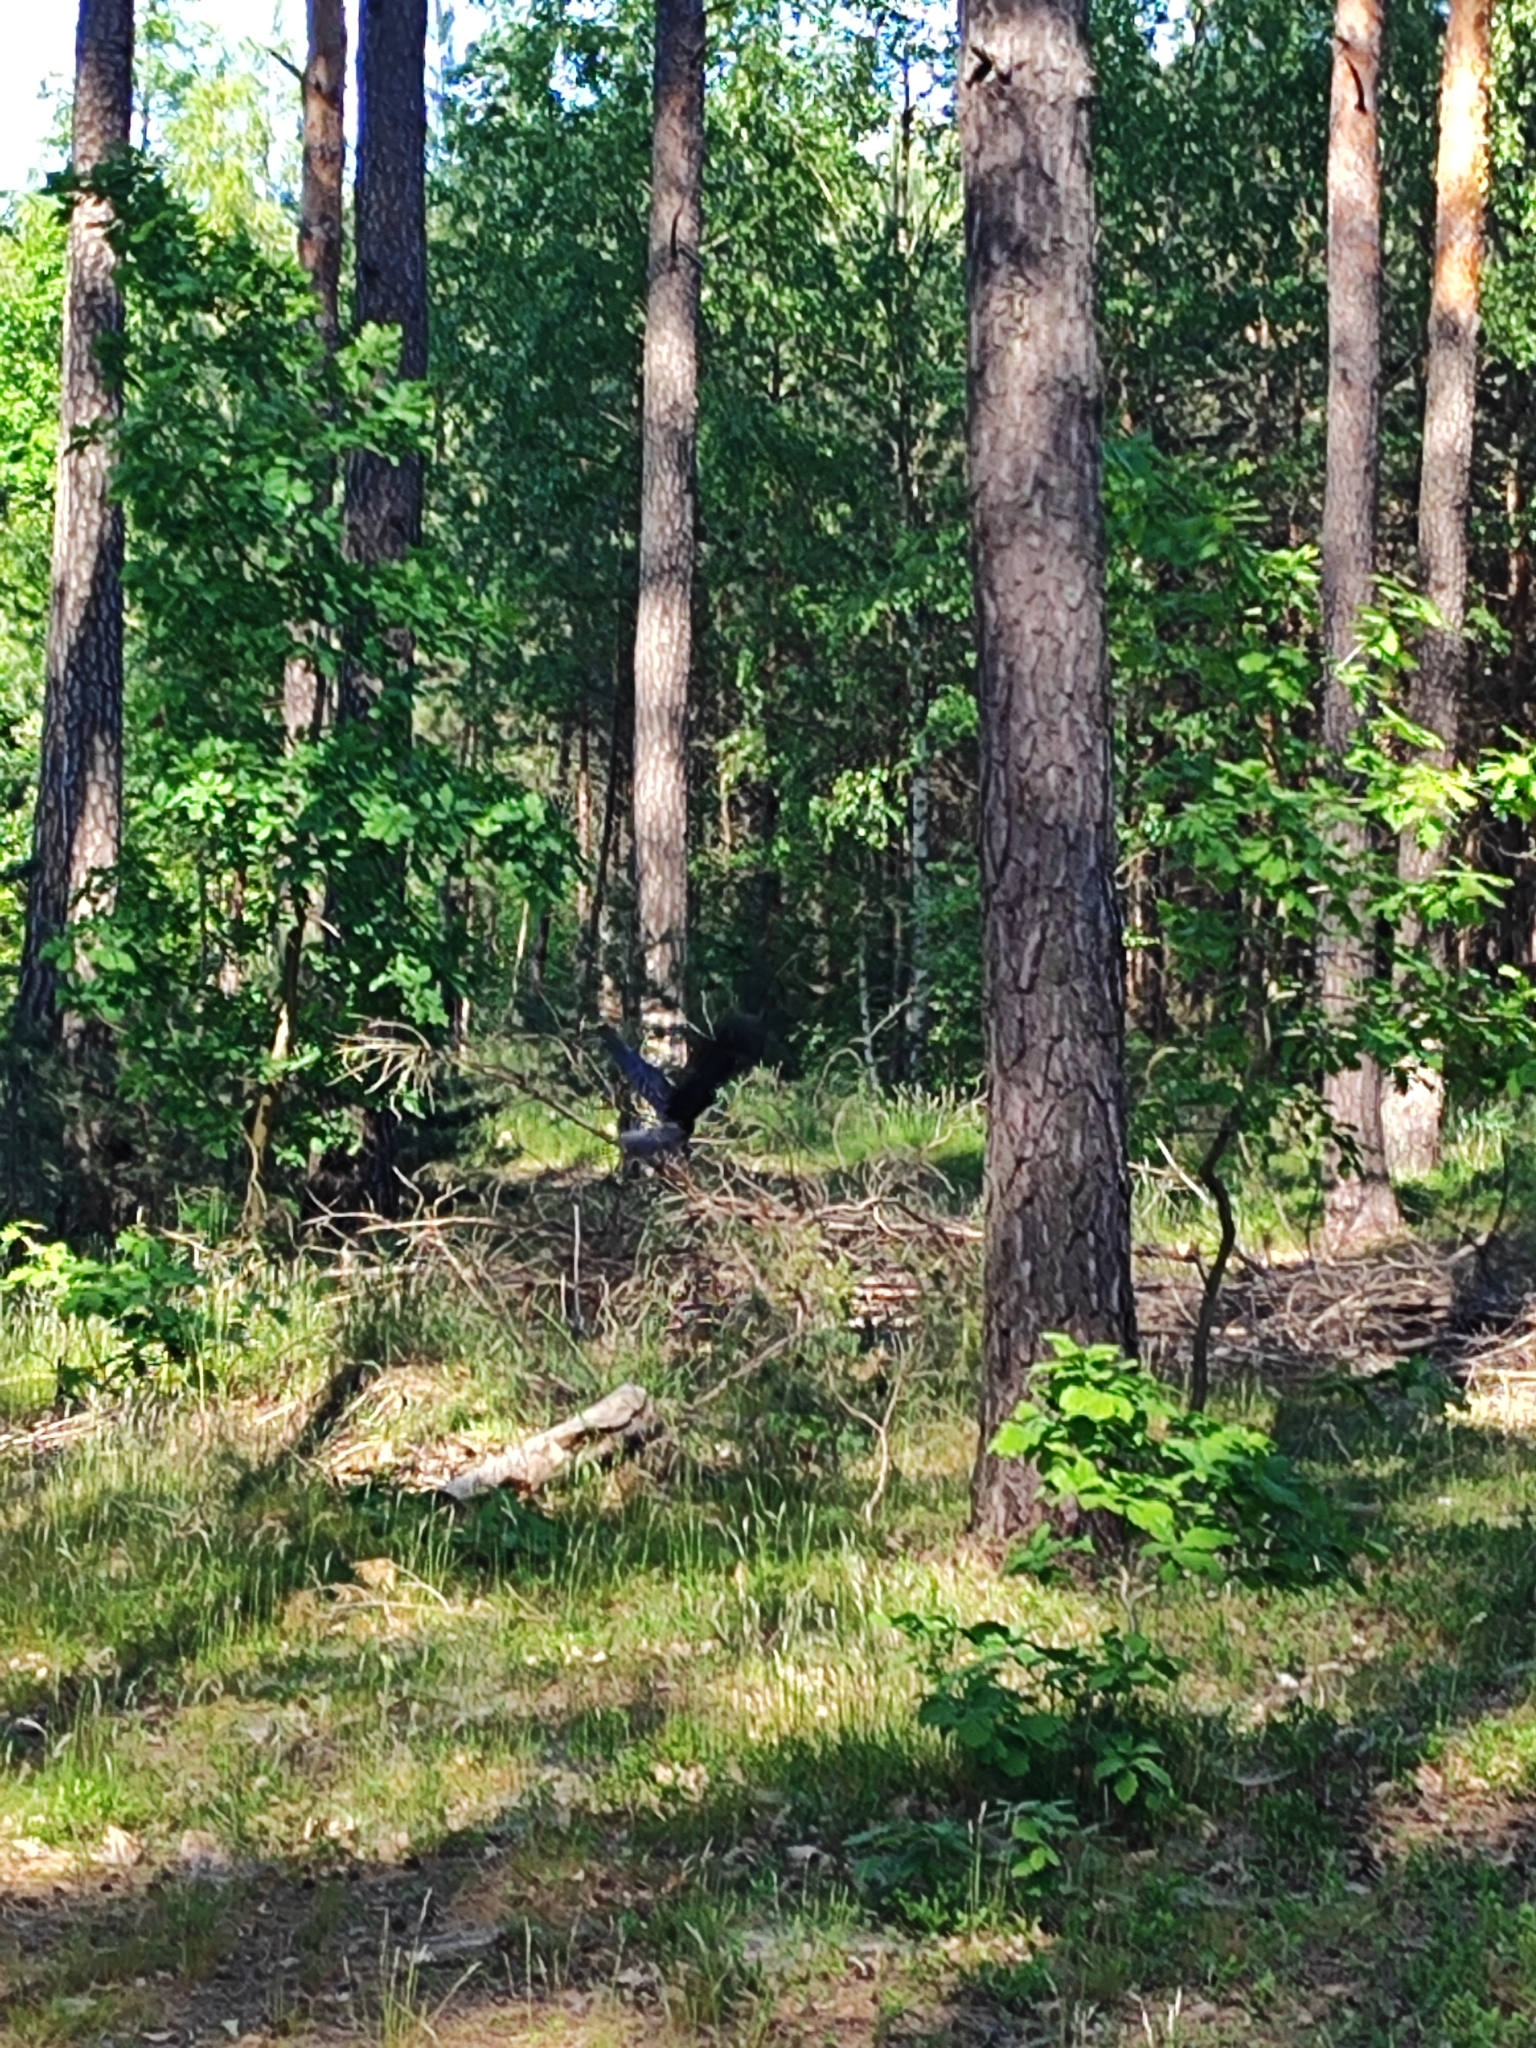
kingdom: Animalia
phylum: Chordata
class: Aves
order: Passeriformes
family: Corvidae
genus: Corvus
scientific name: Corvus corax
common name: Common raven
